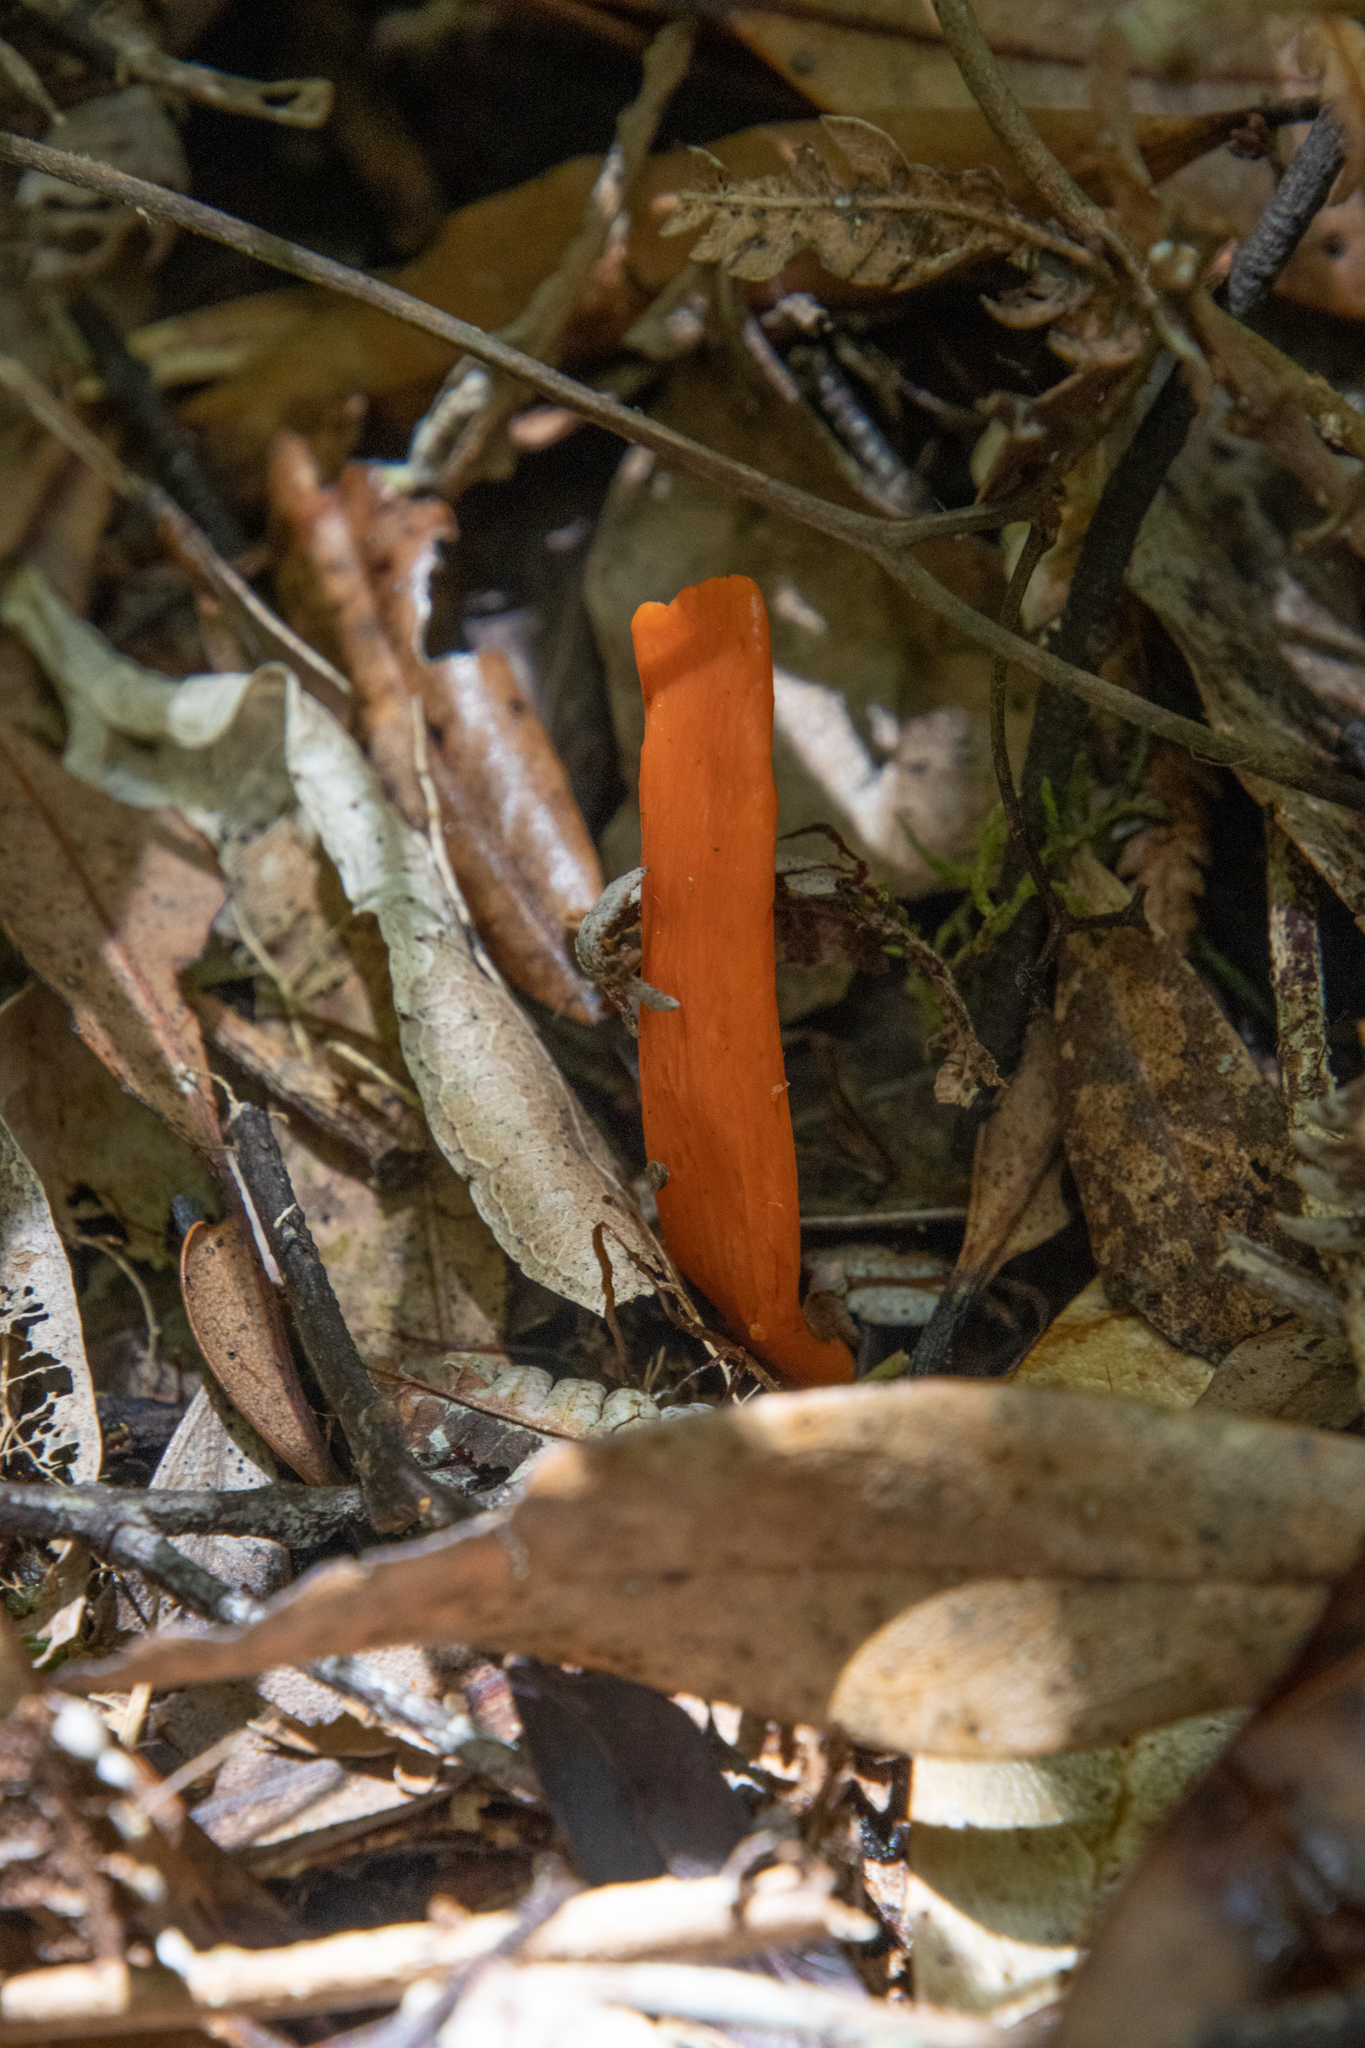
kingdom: Fungi
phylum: Basidiomycota
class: Agaricomycetes
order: Agaricales
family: Clavariaceae
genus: Clavulinopsis
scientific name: Clavulinopsis sulcata
